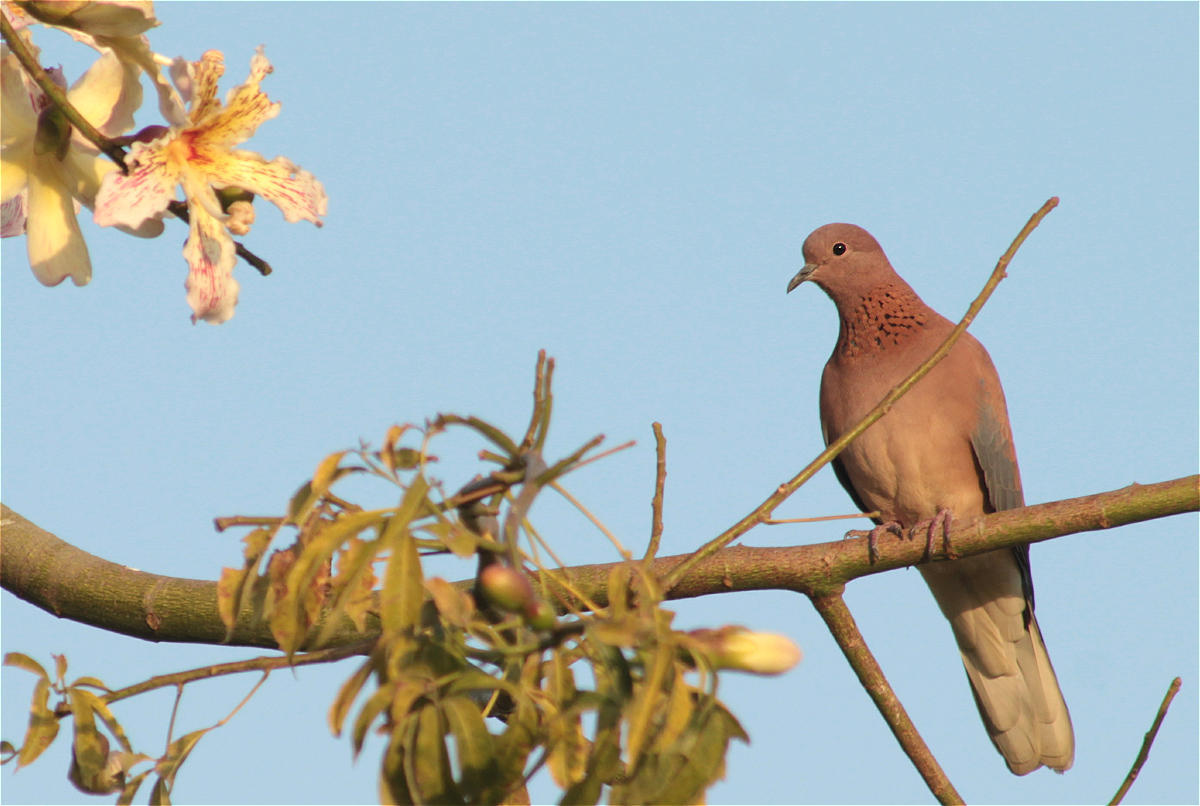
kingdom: Animalia
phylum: Chordata
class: Aves
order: Columbiformes
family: Columbidae
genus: Spilopelia
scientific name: Spilopelia senegalensis
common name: Laughing dove
